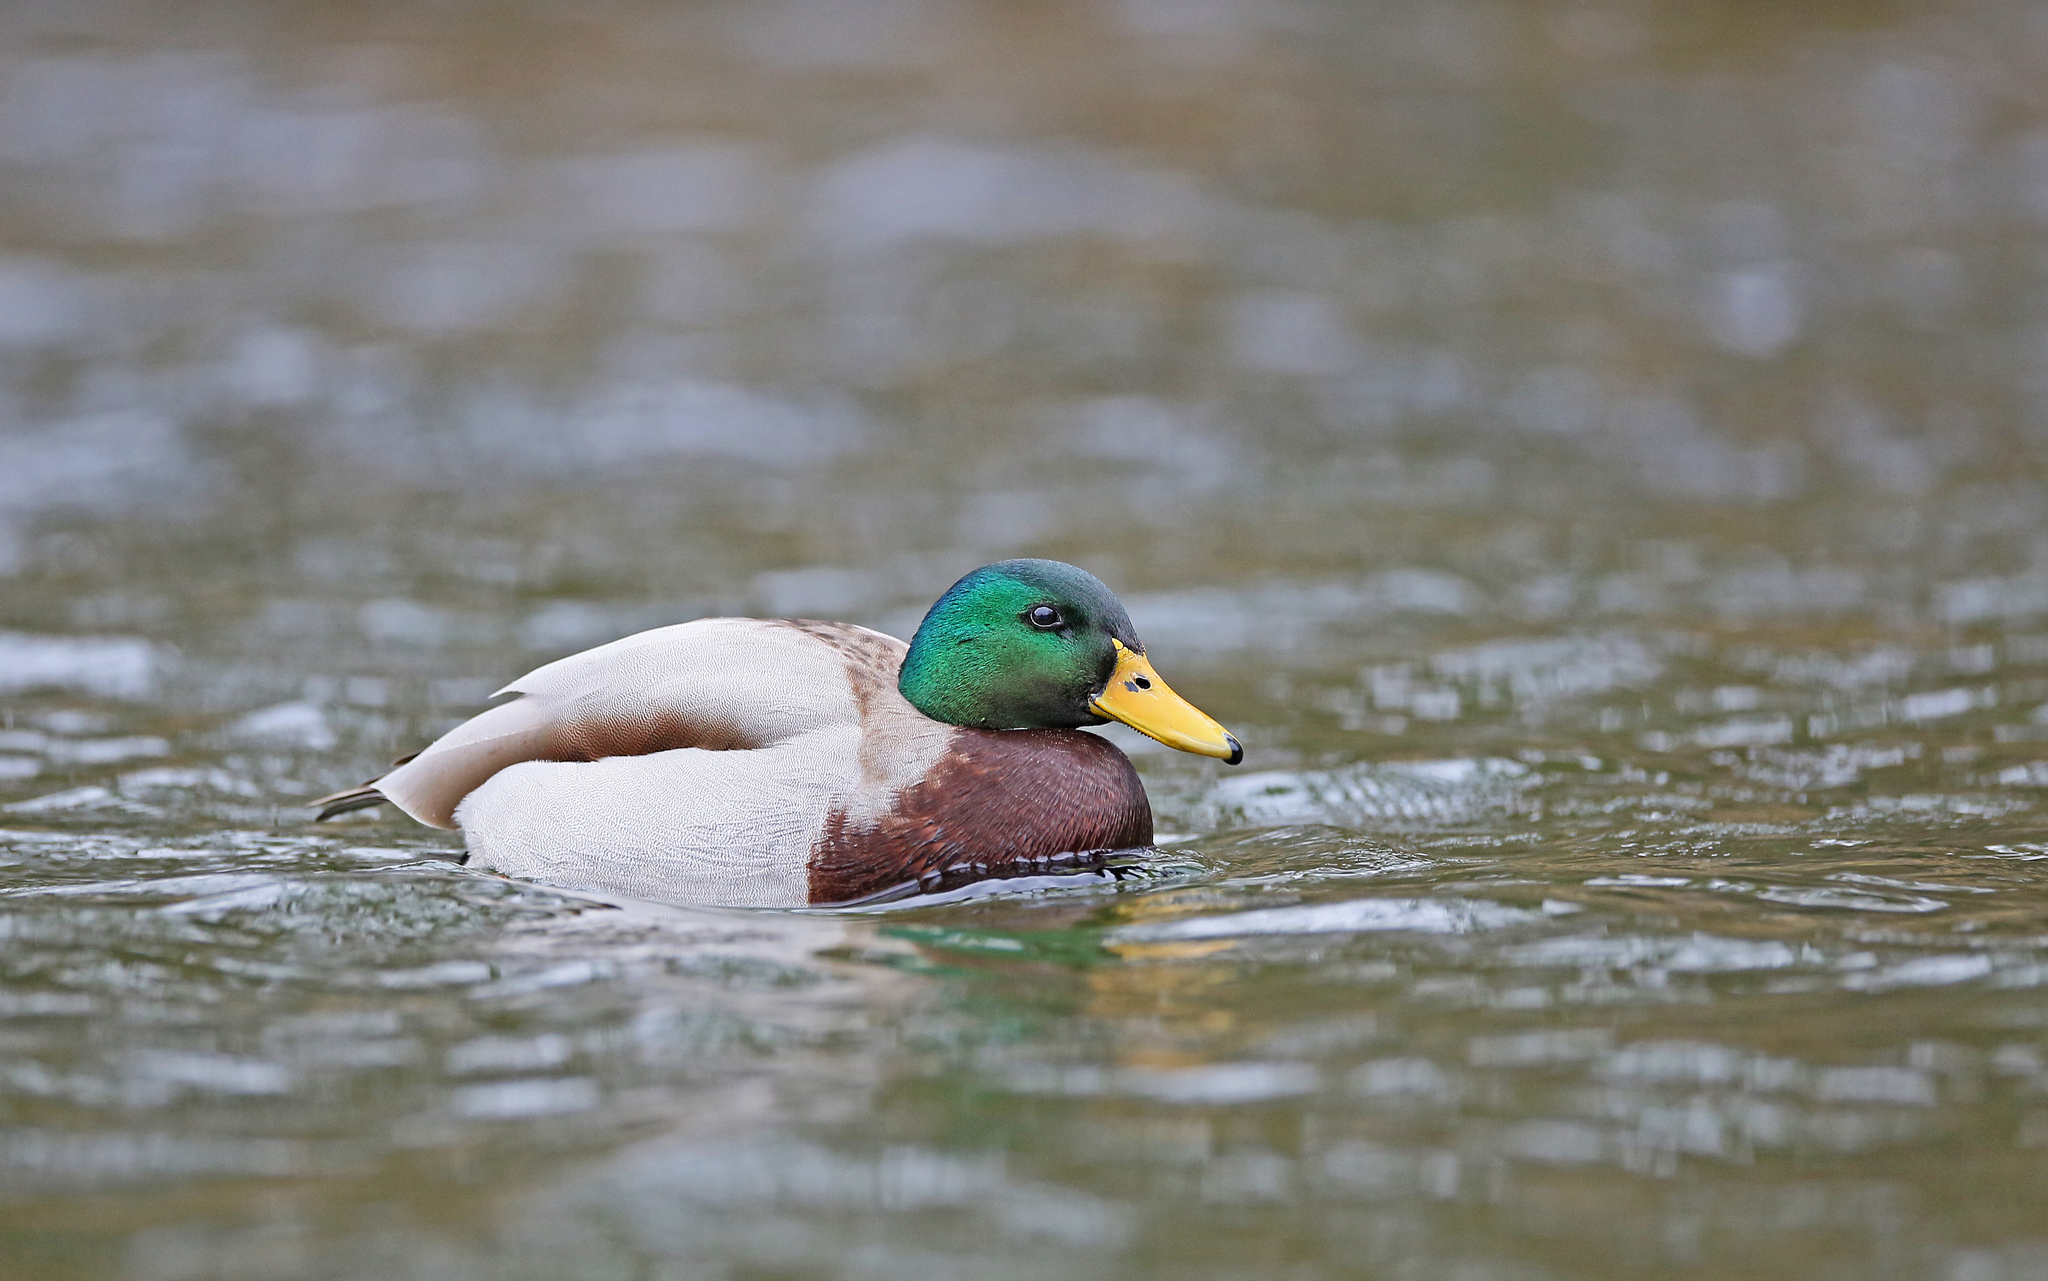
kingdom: Animalia
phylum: Chordata
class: Aves
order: Anseriformes
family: Anatidae
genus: Anas
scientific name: Anas platyrhynchos
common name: Mallard
